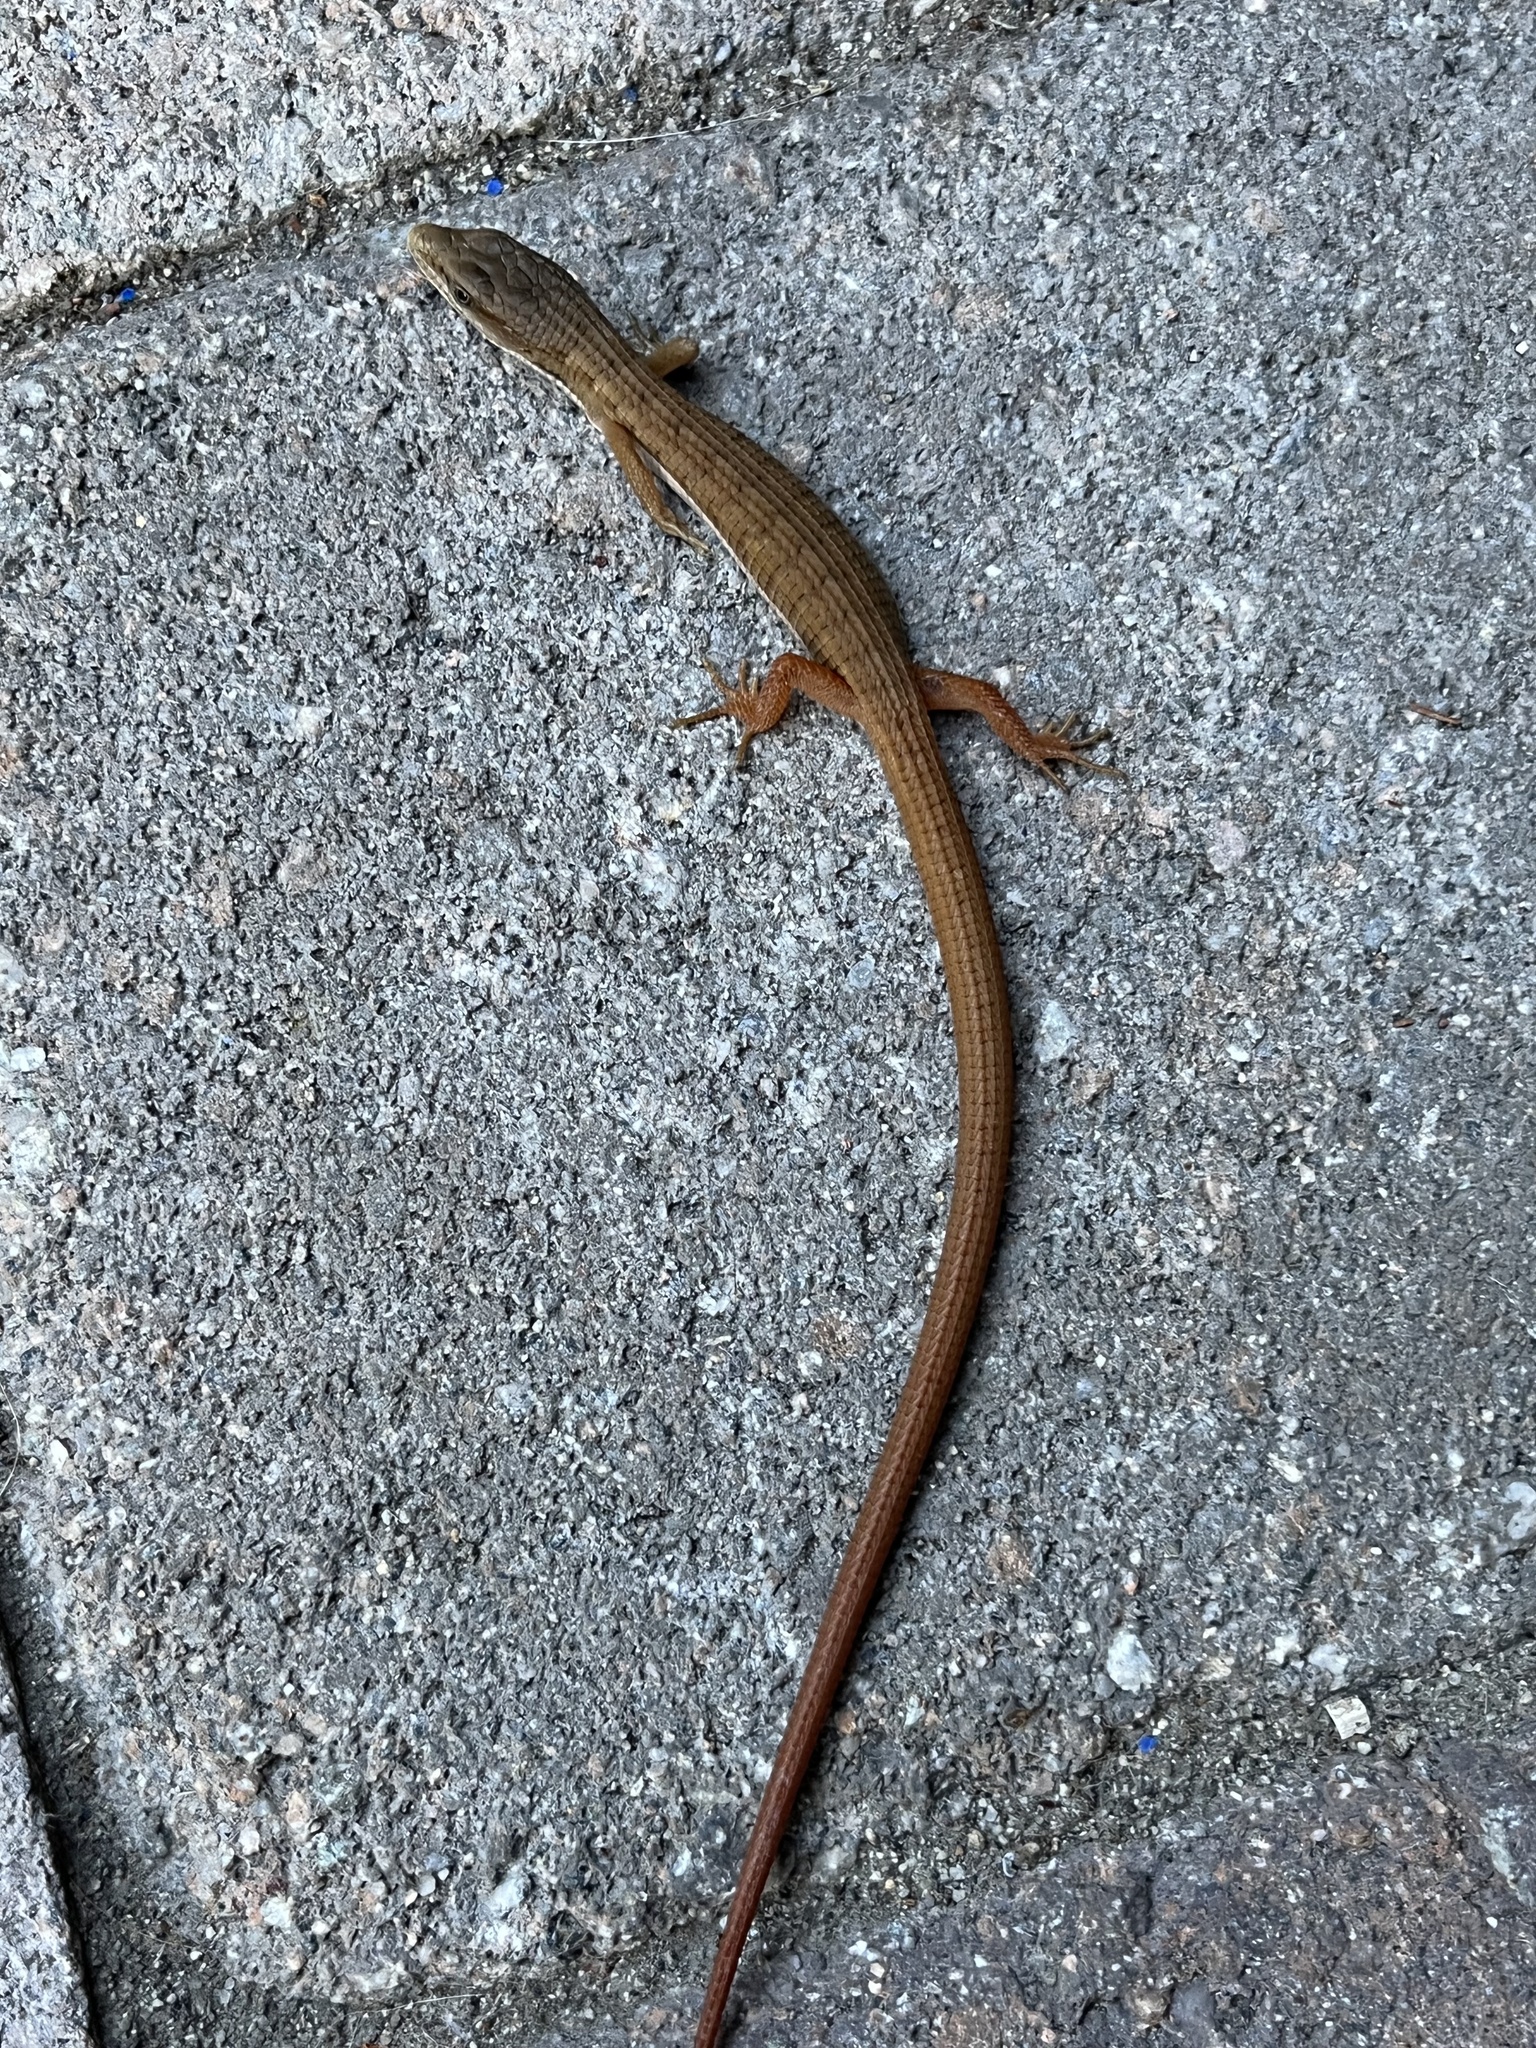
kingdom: Animalia
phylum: Chordata
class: Squamata
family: Anguidae
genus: Elgaria
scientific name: Elgaria multicarinata
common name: Southern alligator lizard
